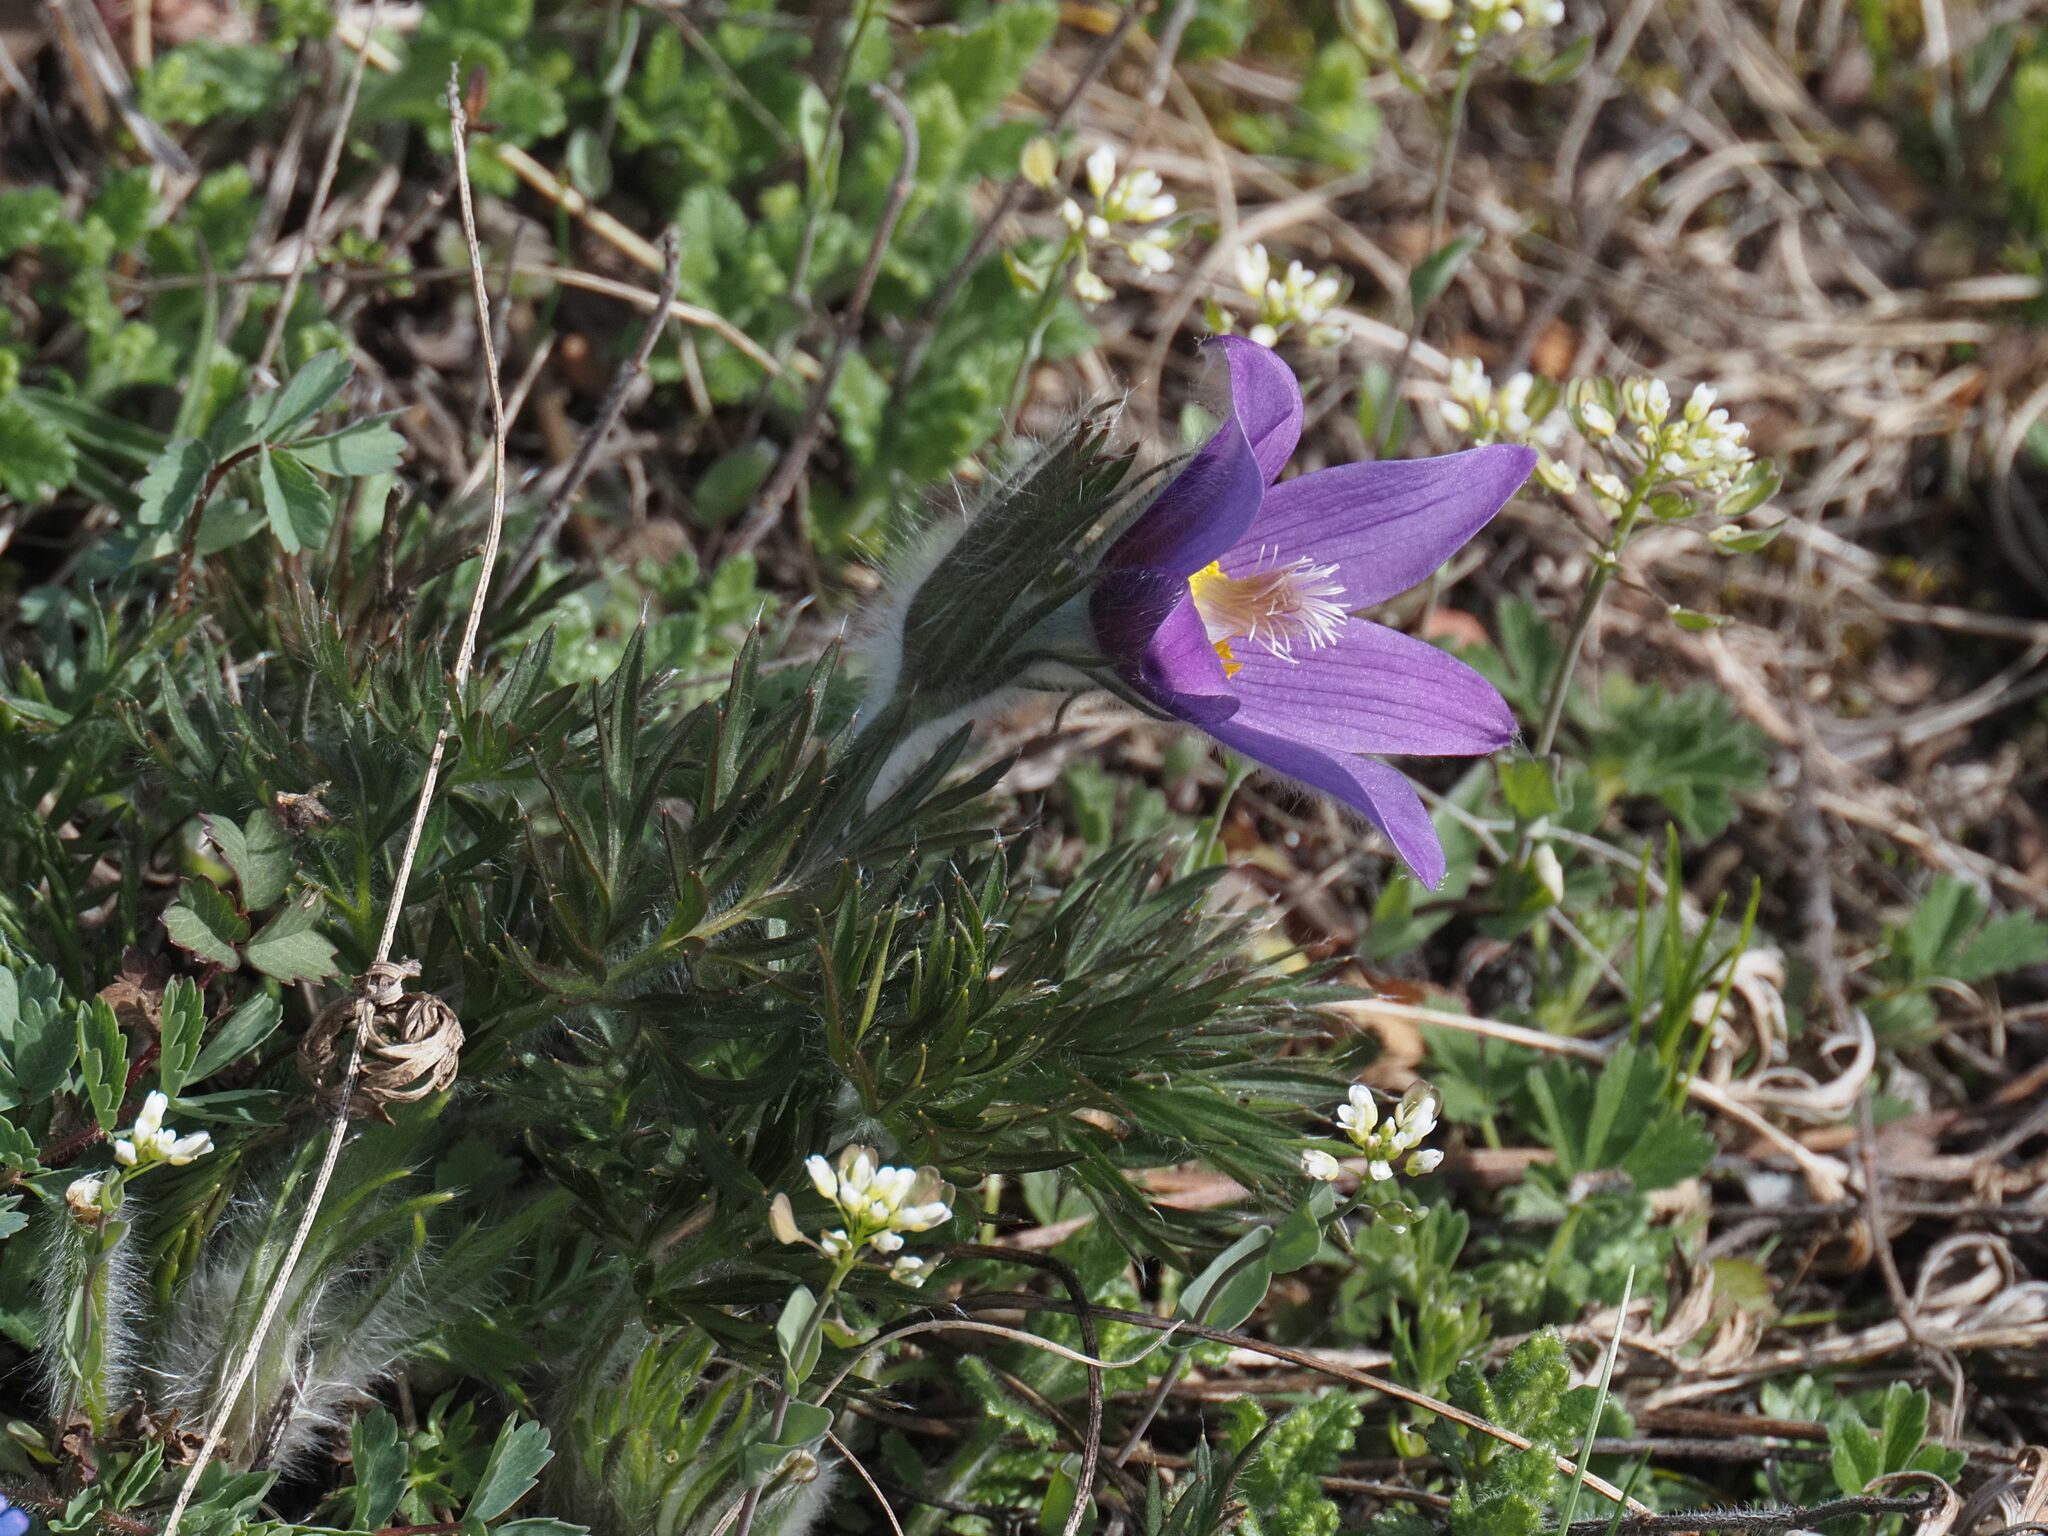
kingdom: Plantae
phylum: Tracheophyta
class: Magnoliopsida
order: Ranunculales
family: Ranunculaceae
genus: Pulsatilla
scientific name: Pulsatilla grandis
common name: Greater pasque flower
